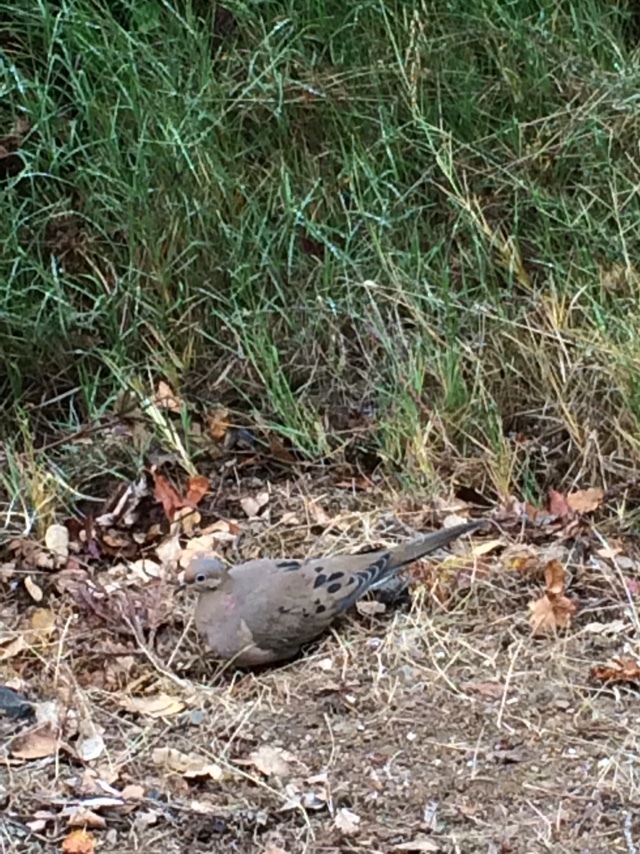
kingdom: Animalia
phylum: Chordata
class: Aves
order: Columbiformes
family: Columbidae
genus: Zenaida
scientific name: Zenaida macroura
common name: Mourning dove
